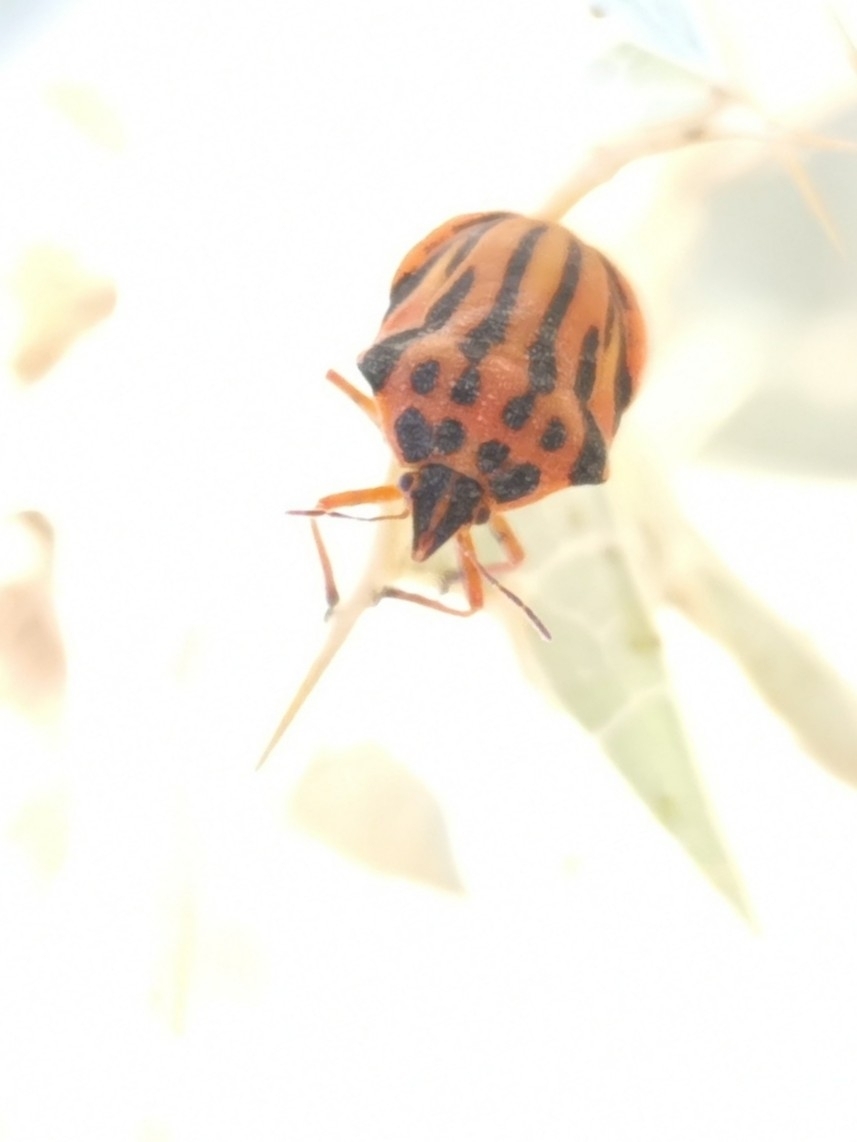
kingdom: Animalia
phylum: Arthropoda
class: Insecta
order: Hemiptera
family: Pentatomidae
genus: Graphosoma
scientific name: Graphosoma semipunctatum
